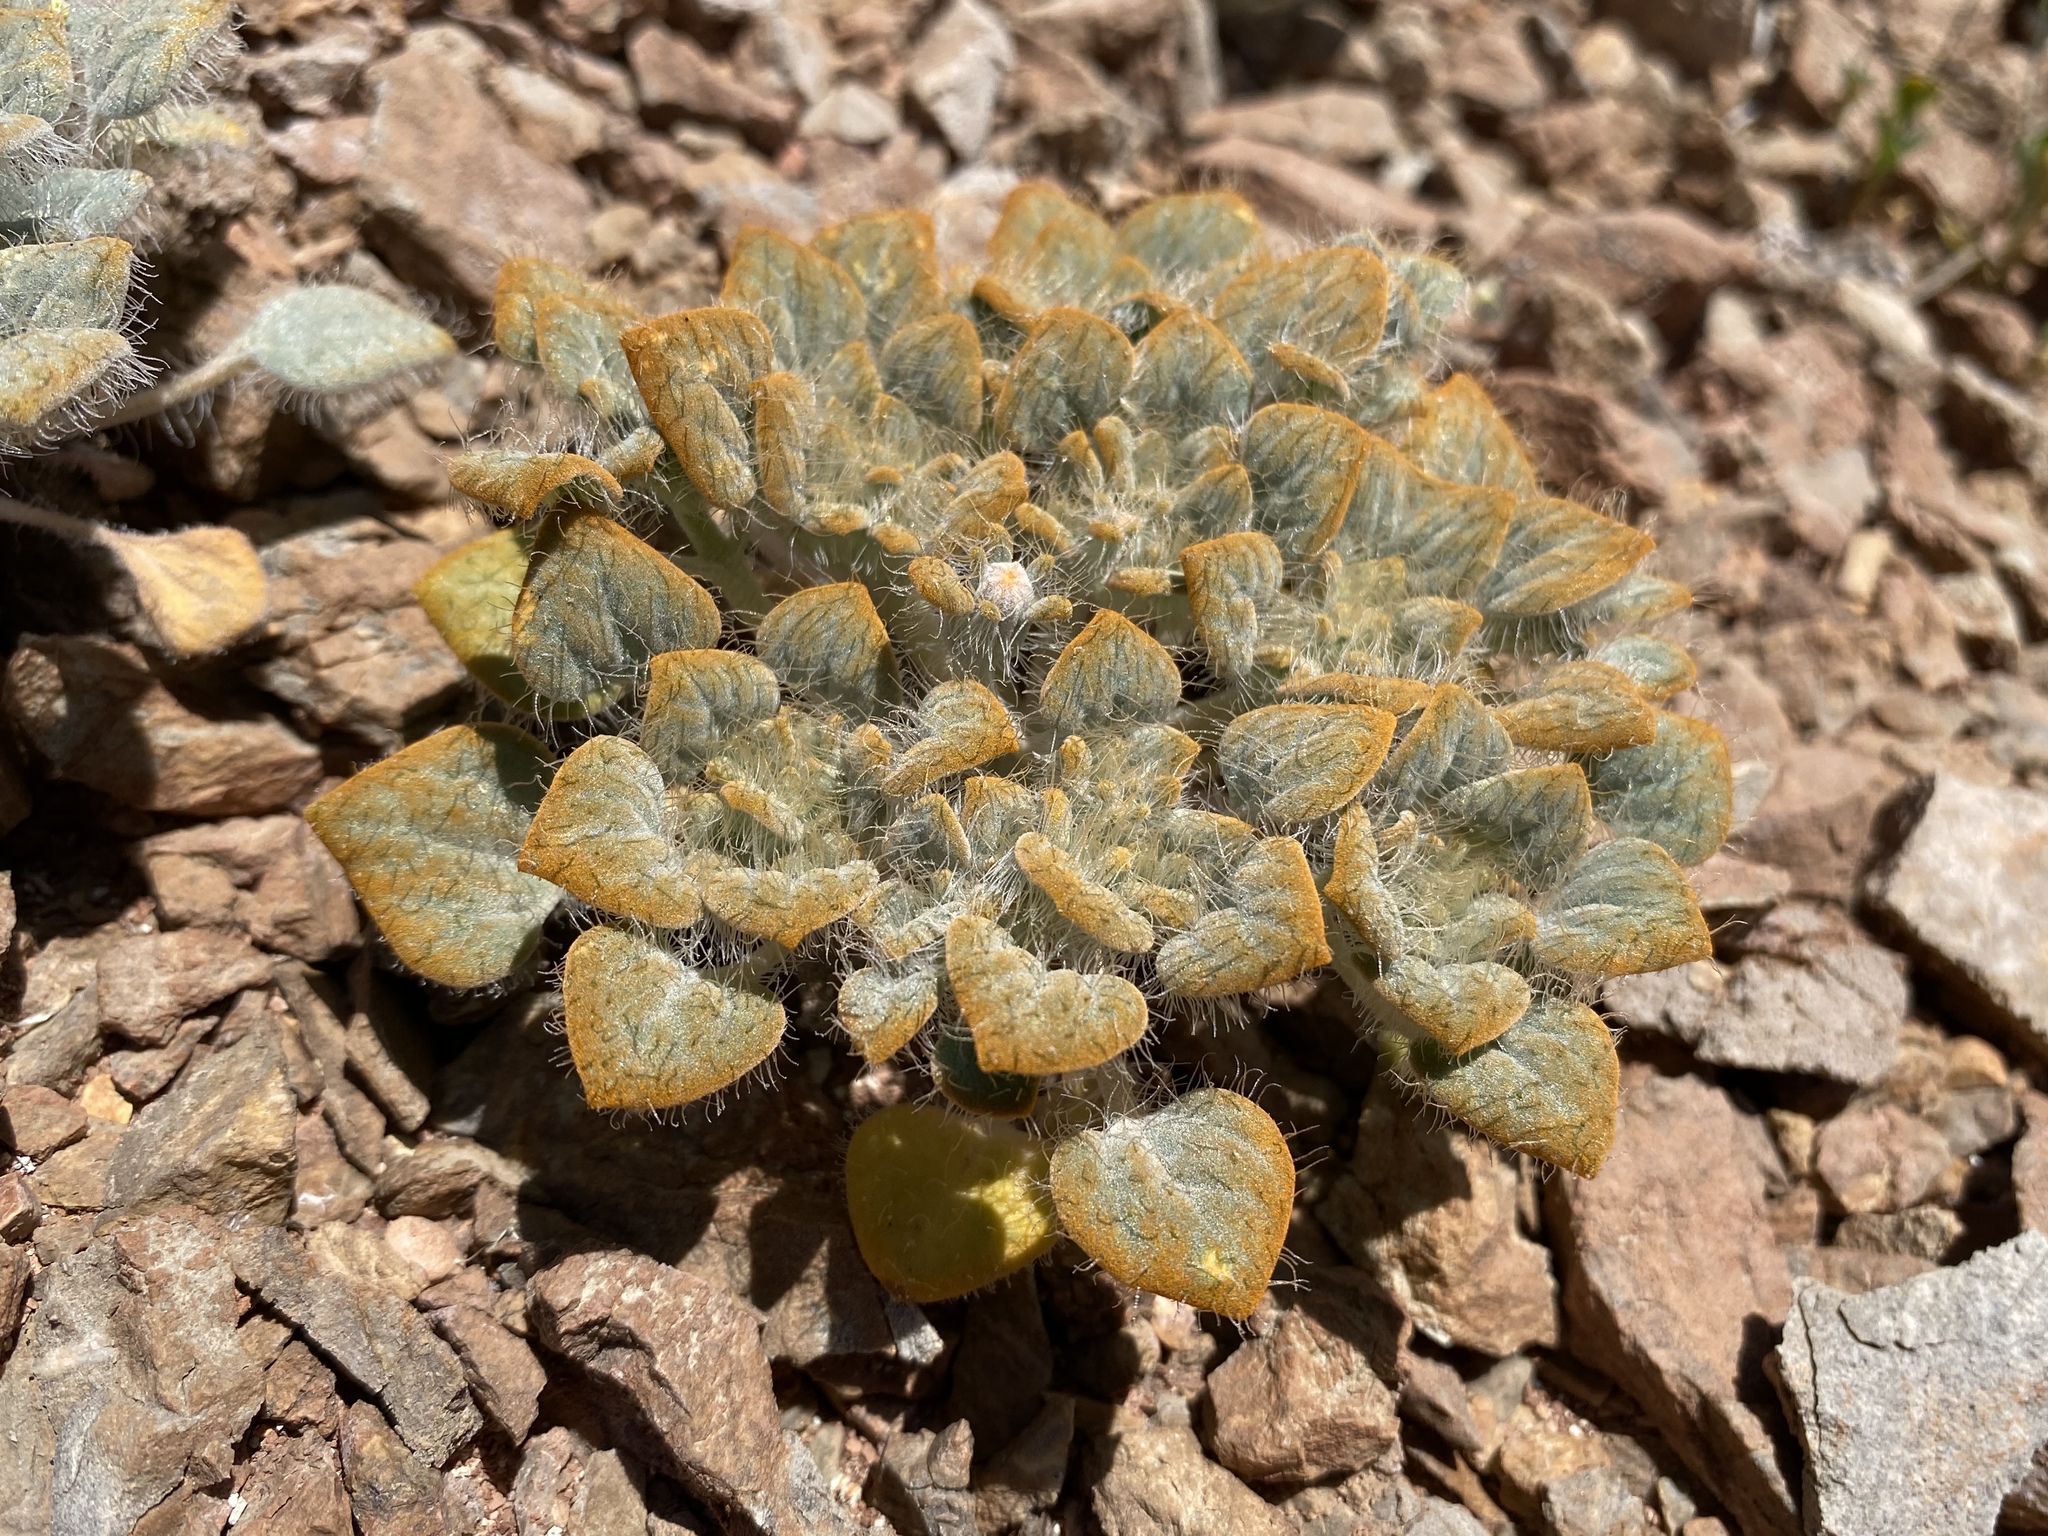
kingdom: Plantae
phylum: Tracheophyta
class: Magnoliopsida
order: Asterales
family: Asteraceae
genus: Psathyrotes
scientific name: Psathyrotes pilifera
